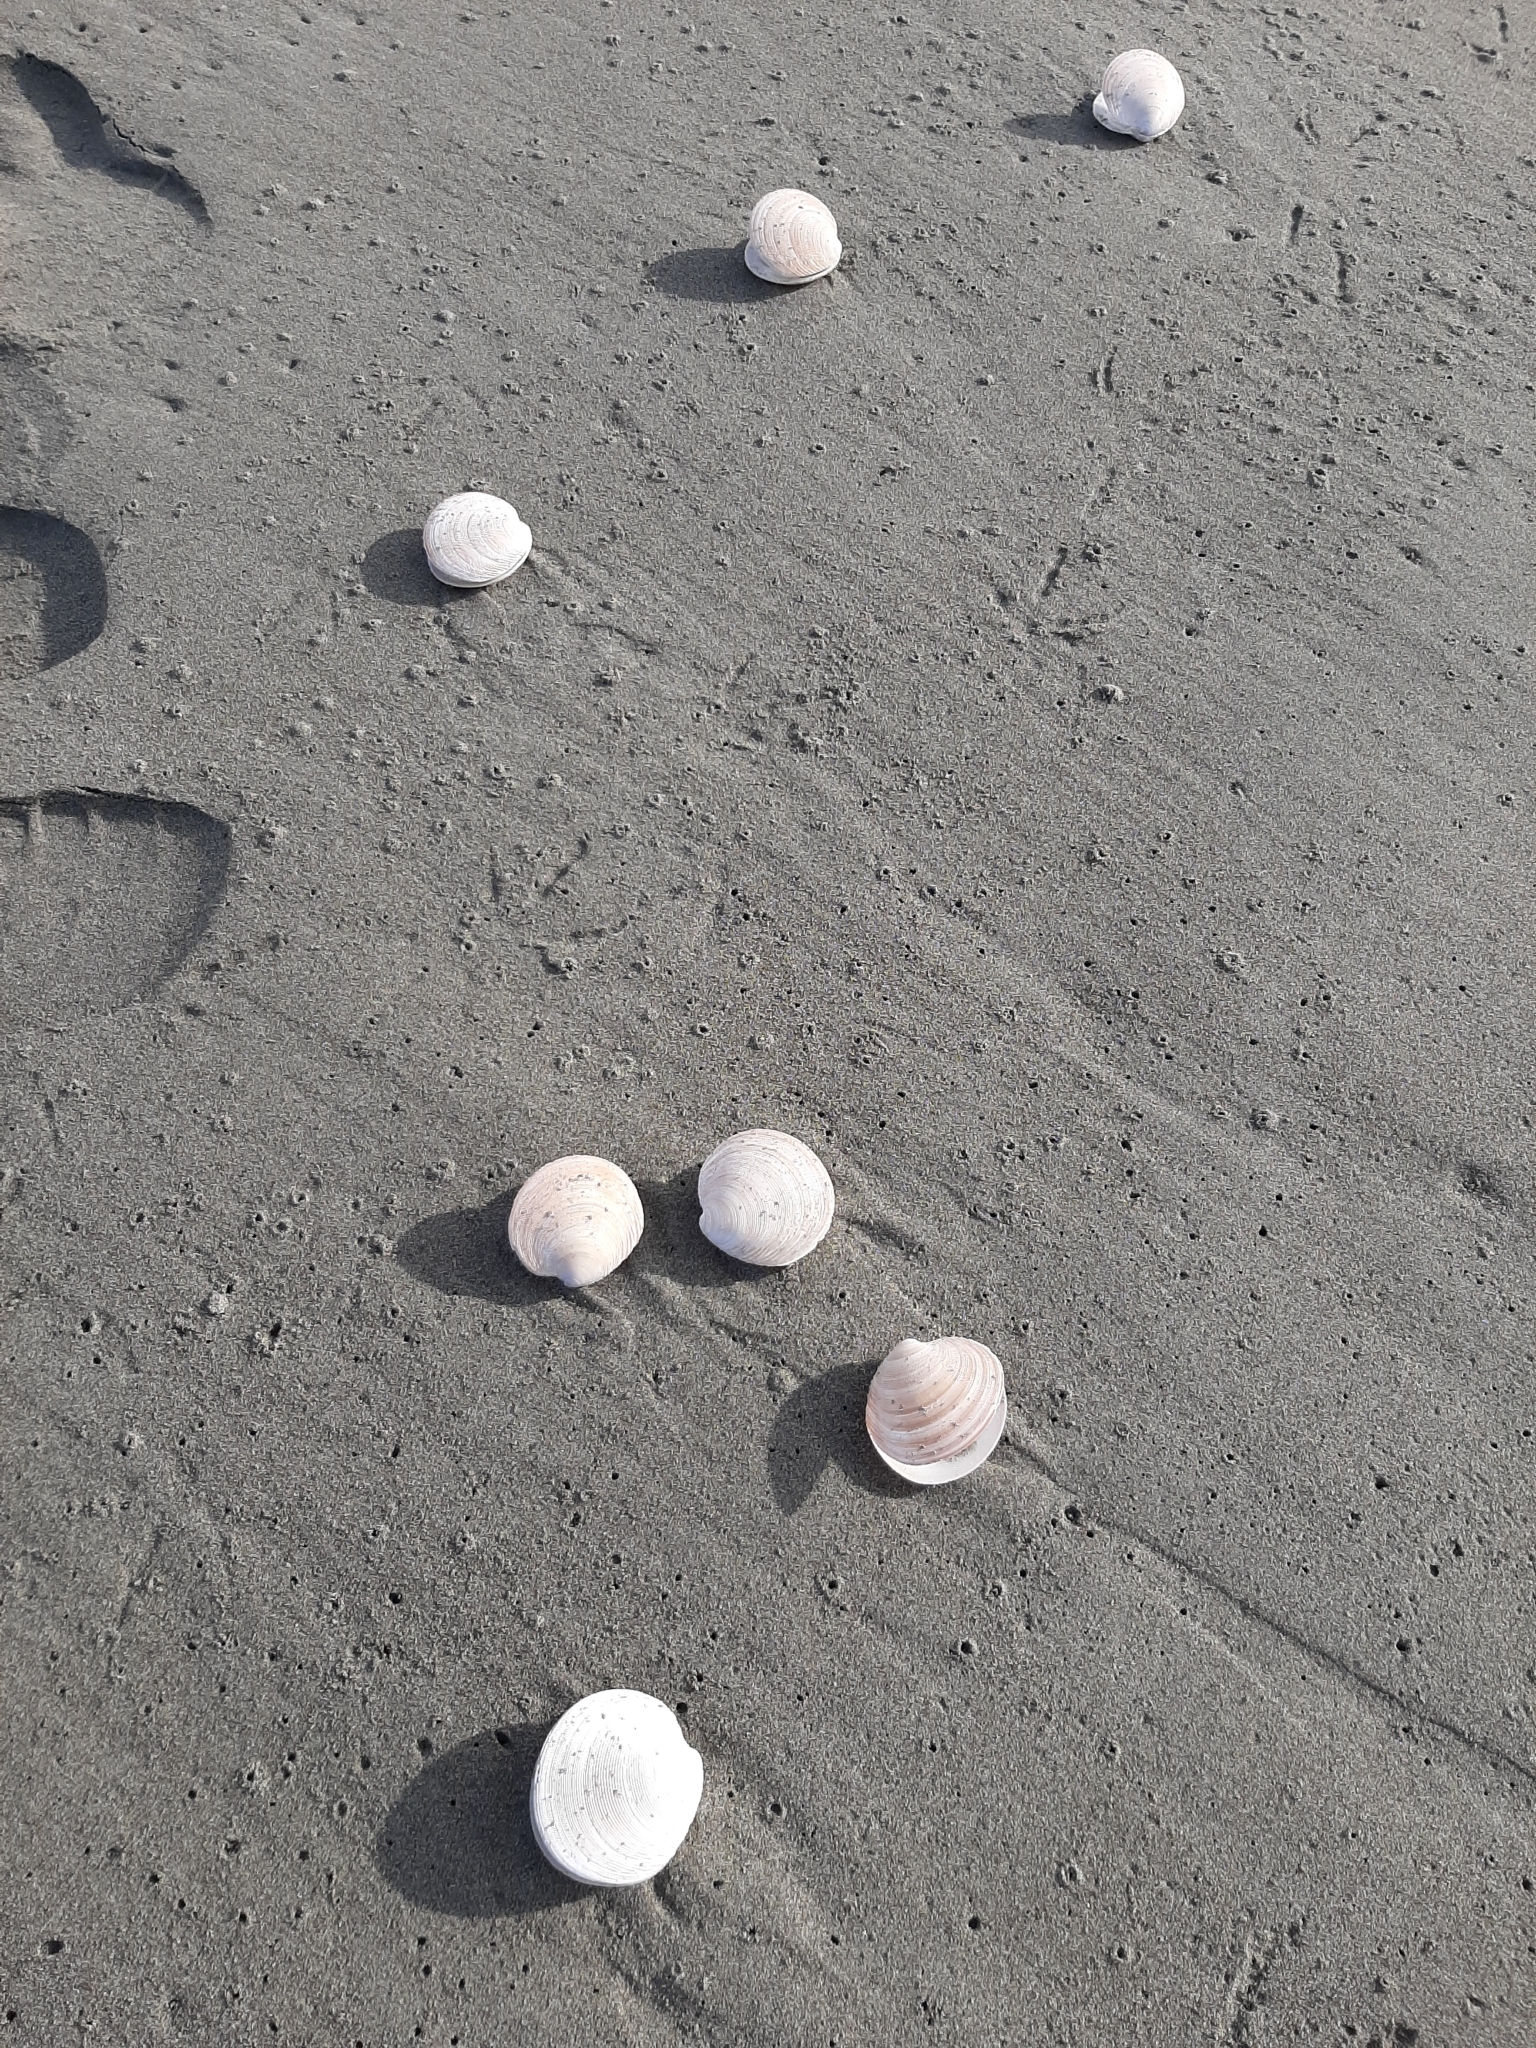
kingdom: Animalia
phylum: Mollusca
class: Bivalvia
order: Venerida
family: Veneridae
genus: Dosinia
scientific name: Dosinia anus
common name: Old-woman dosinia
